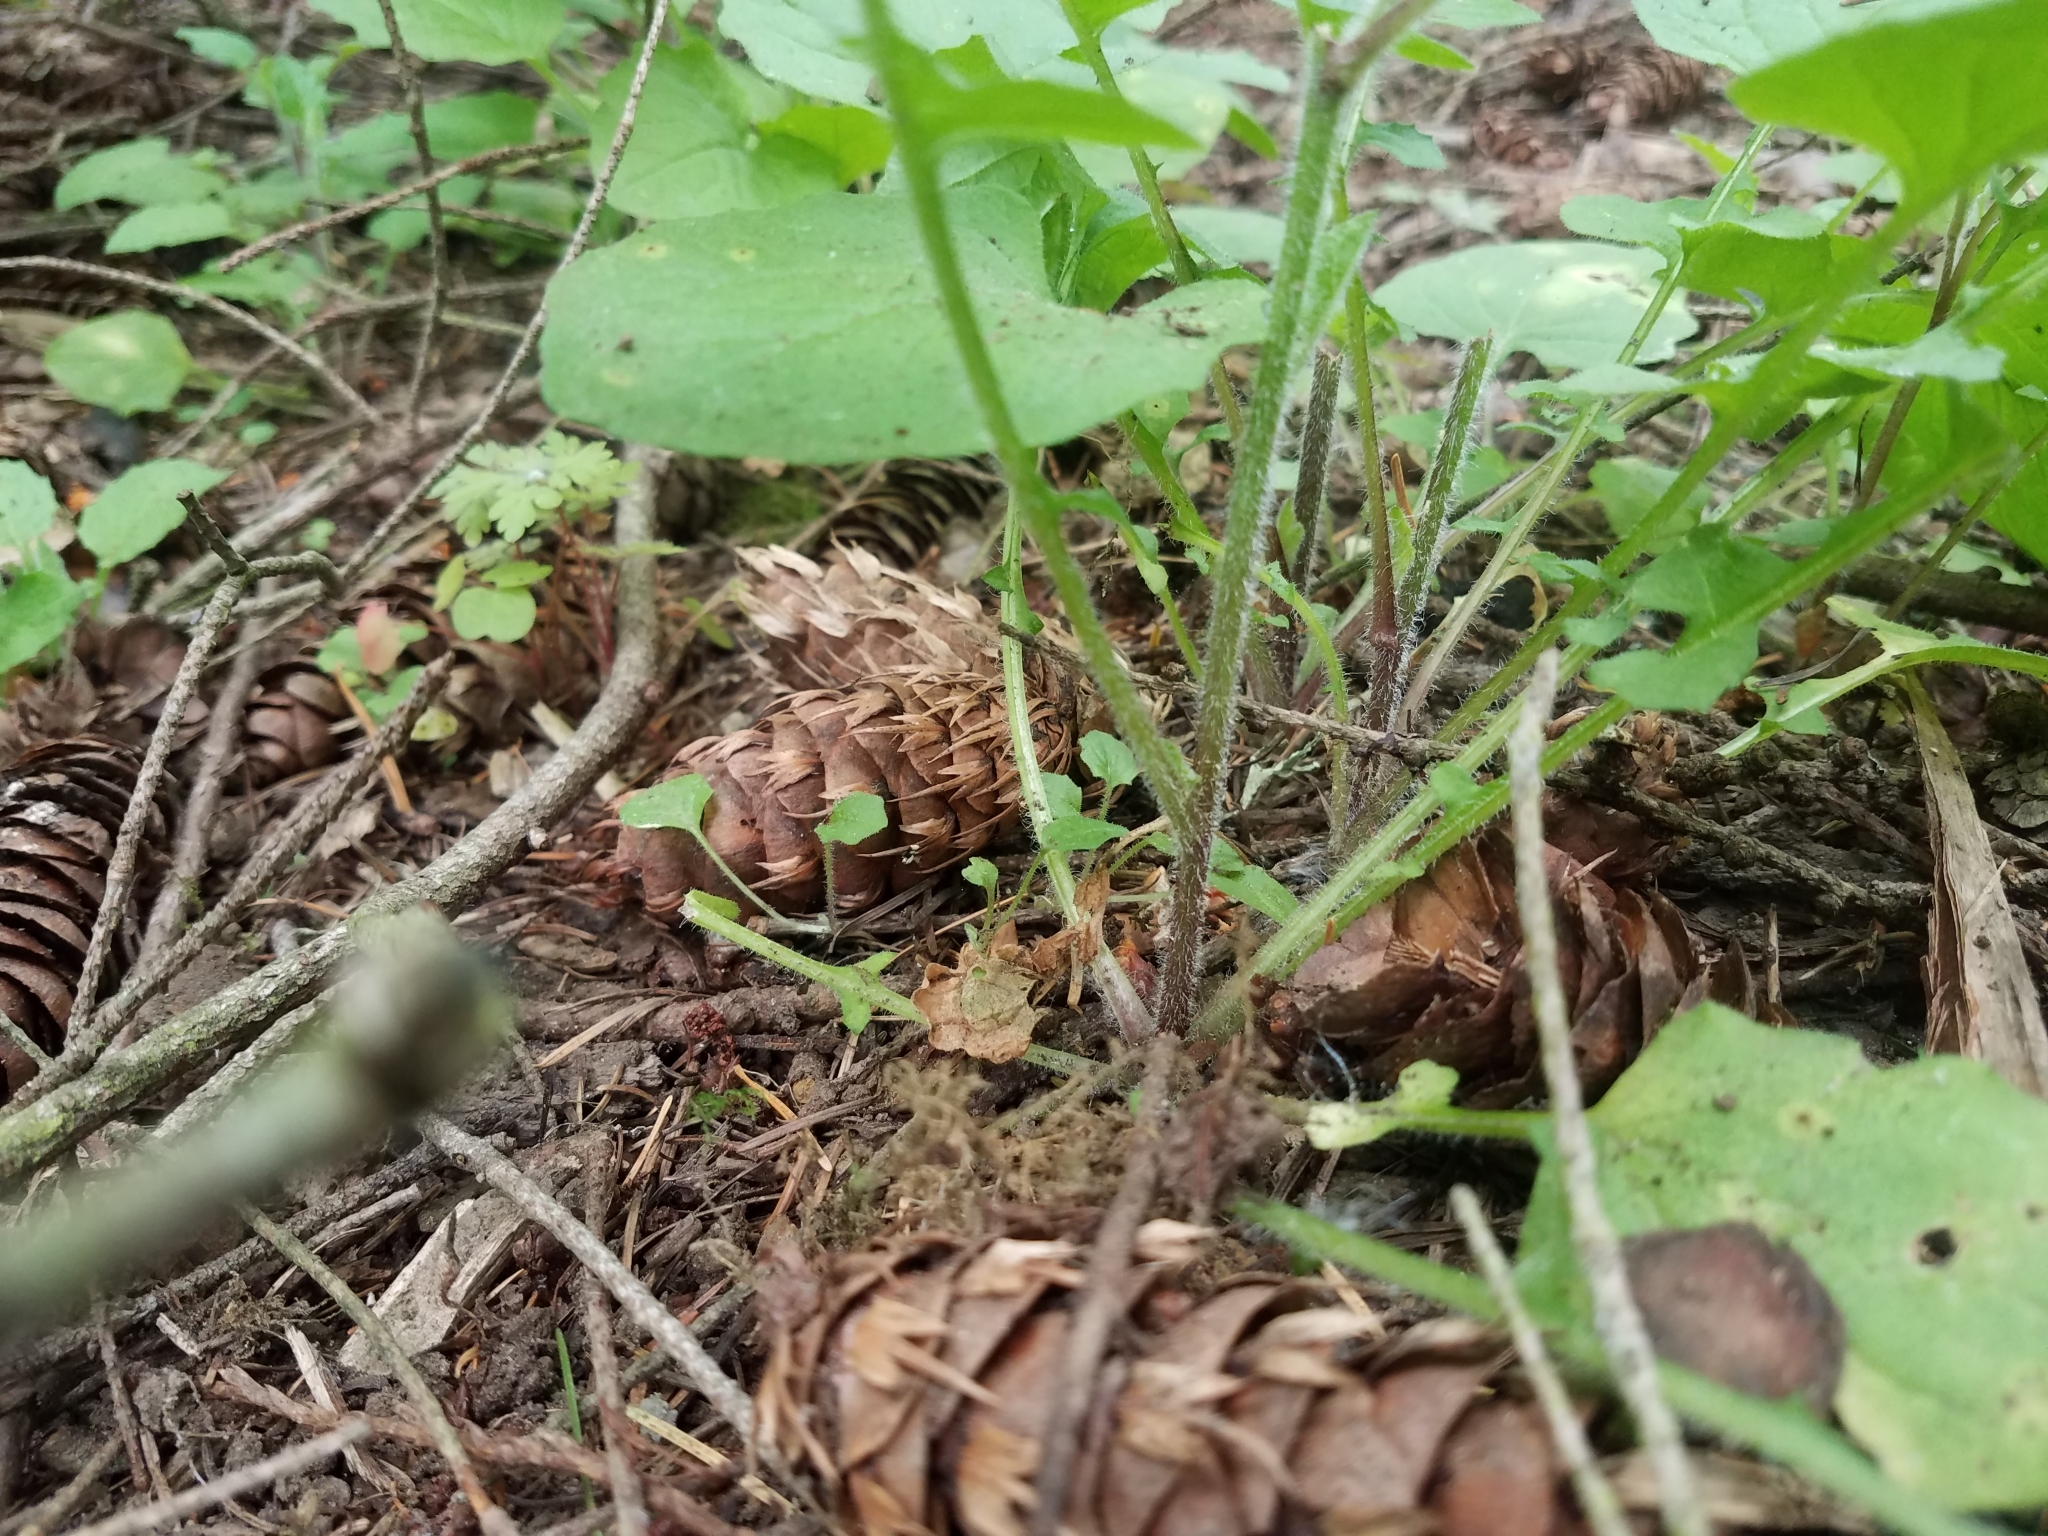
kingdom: Plantae
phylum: Tracheophyta
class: Magnoliopsida
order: Asterales
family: Asteraceae
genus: Lapsana
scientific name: Lapsana communis
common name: Nipplewort
